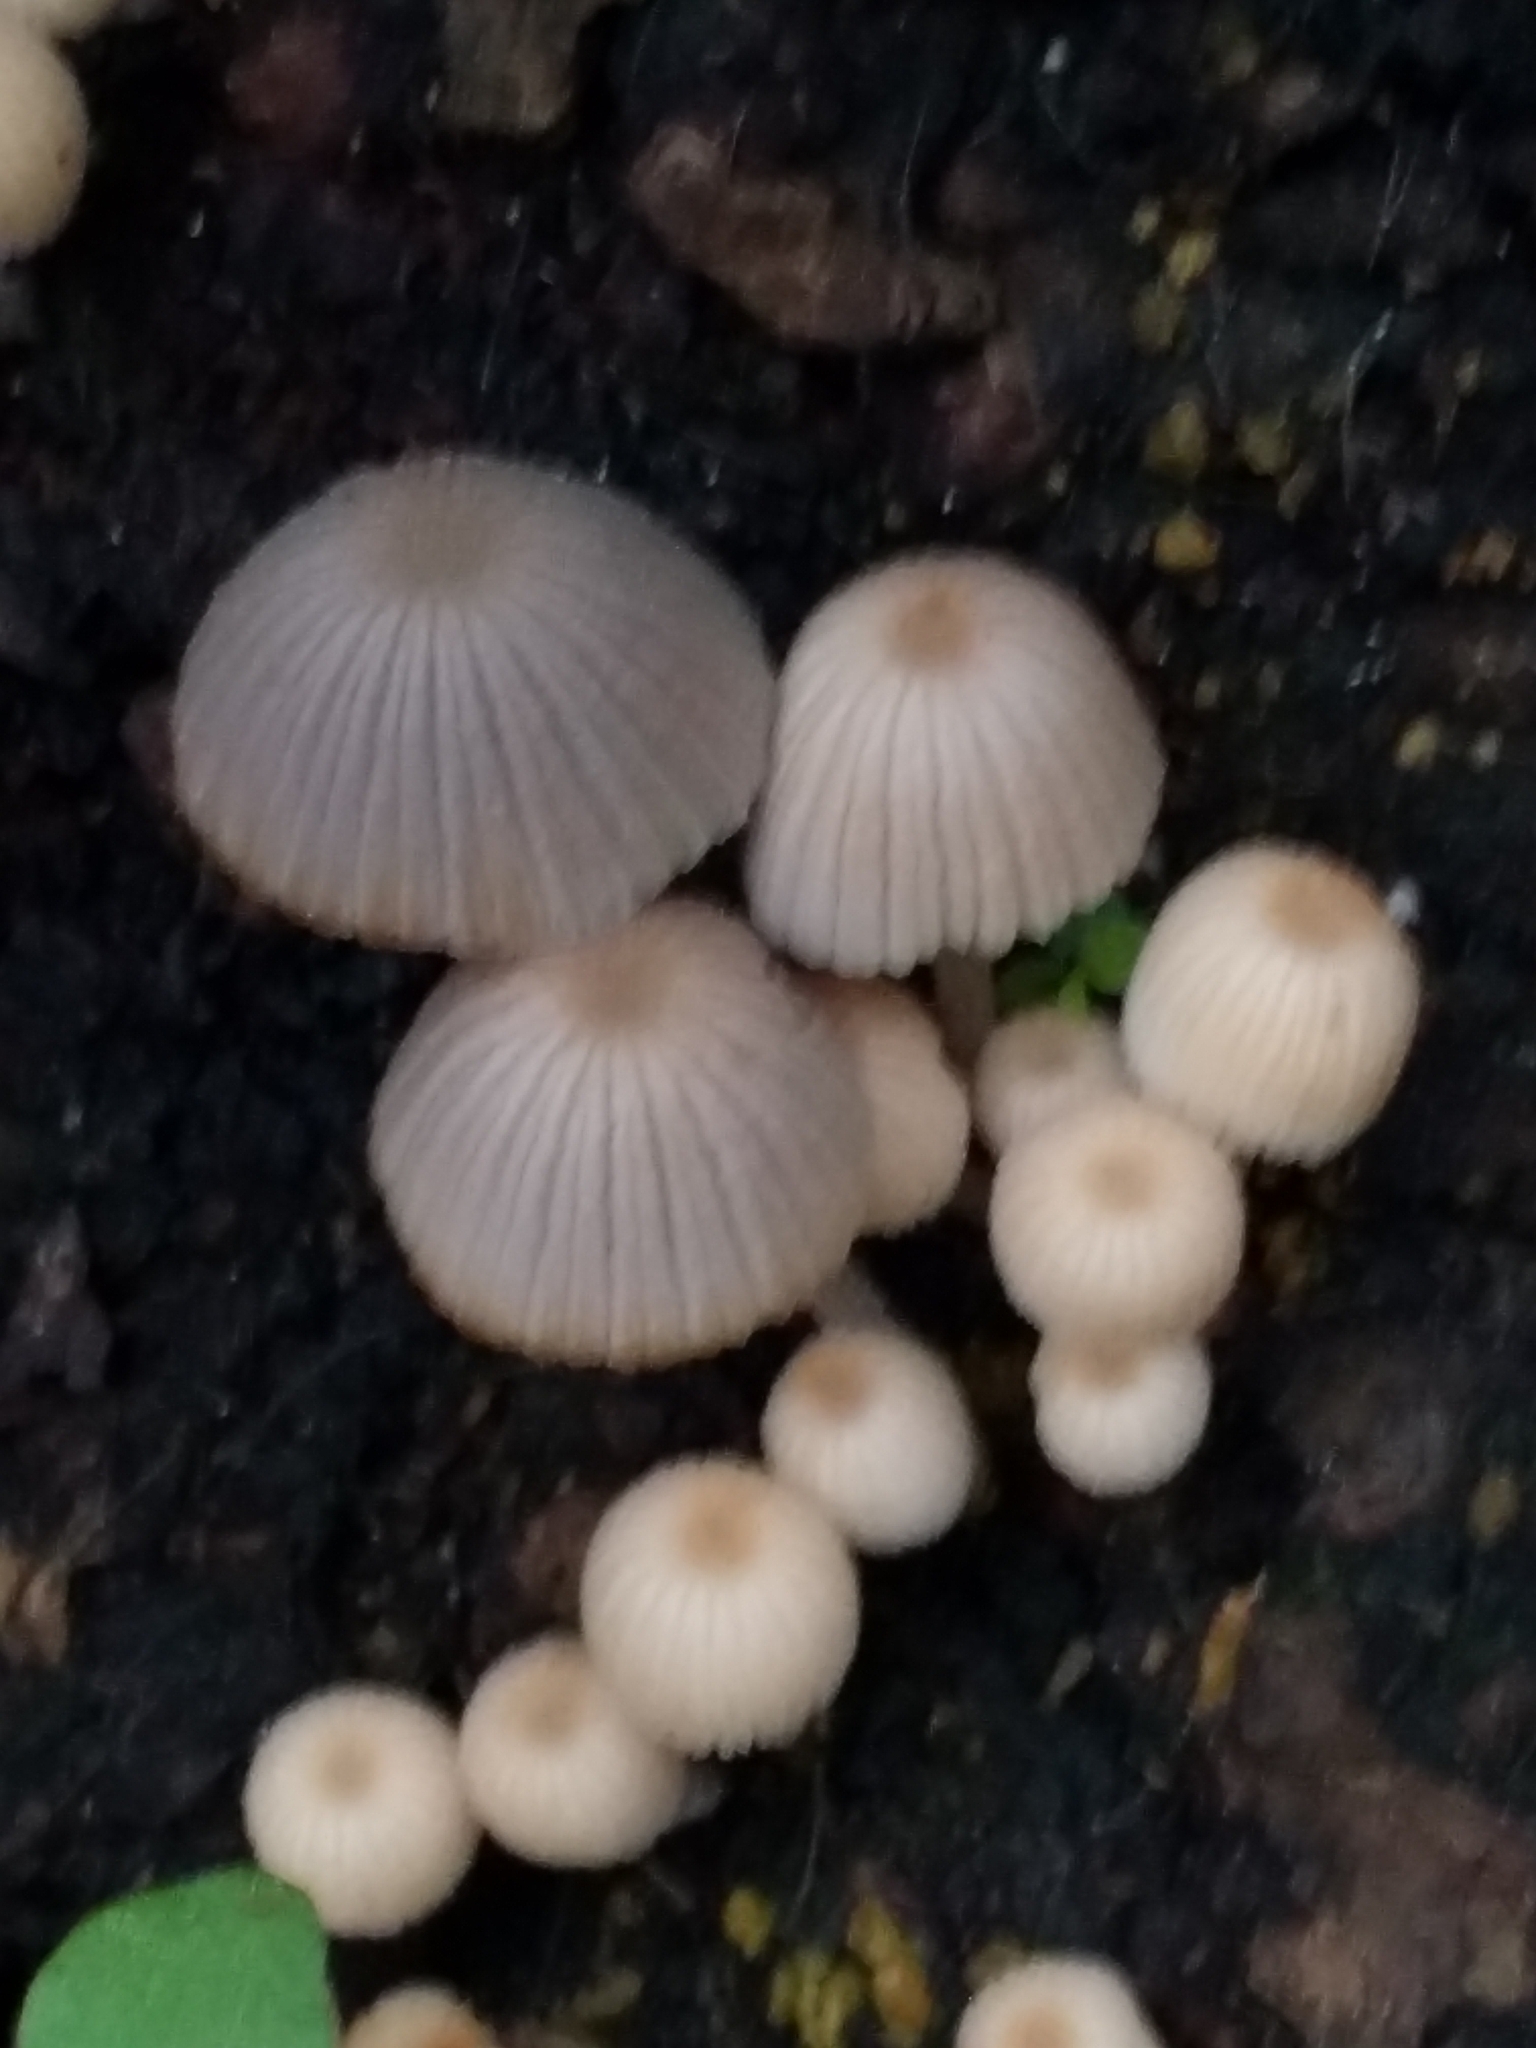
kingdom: Fungi
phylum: Basidiomycota
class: Agaricomycetes
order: Agaricales
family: Psathyrellaceae
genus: Coprinellus
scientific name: Coprinellus disseminatus
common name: Fairies' bonnets
